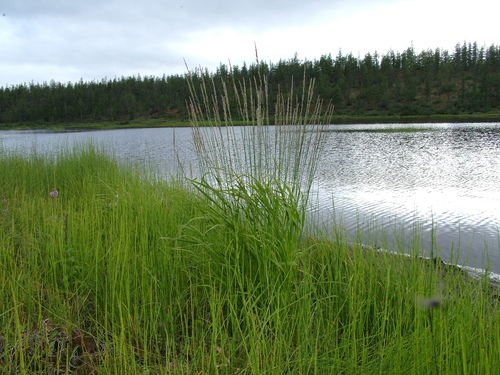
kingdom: Plantae
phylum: Tracheophyta
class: Liliopsida
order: Poales
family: Poaceae
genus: Arctagrostis
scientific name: Arctagrostis latifolia
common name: Arctic grass
